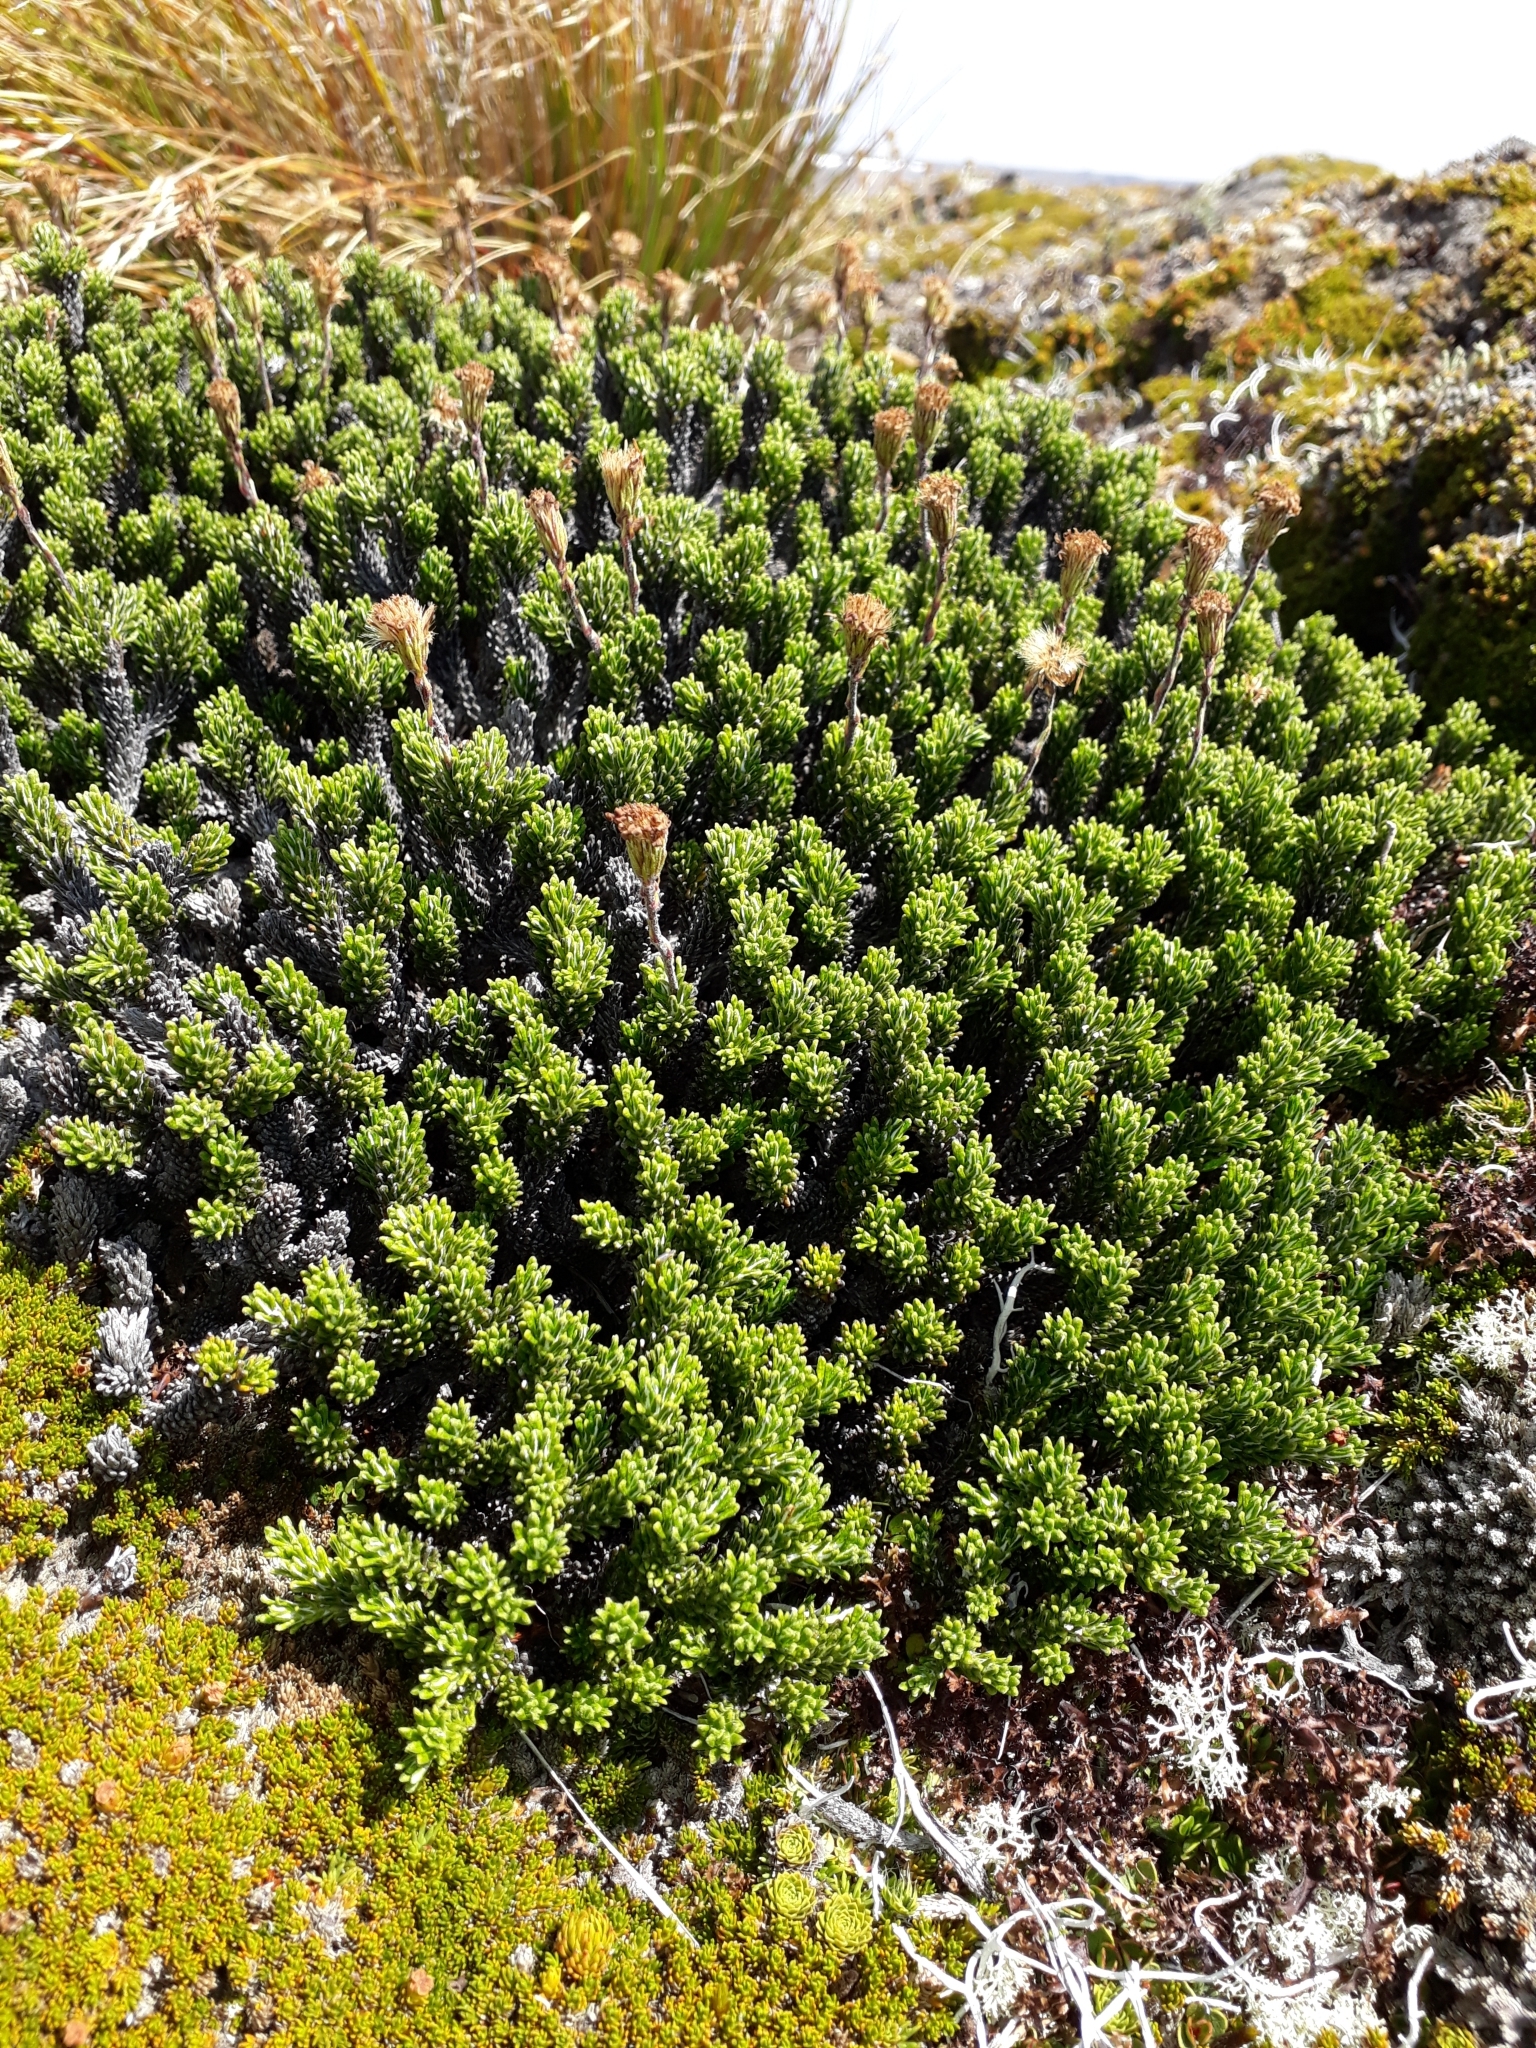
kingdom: Plantae
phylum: Tracheophyta
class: Magnoliopsida
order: Asterales
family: Asteraceae
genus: Celmisia
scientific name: Celmisia ramulosa
